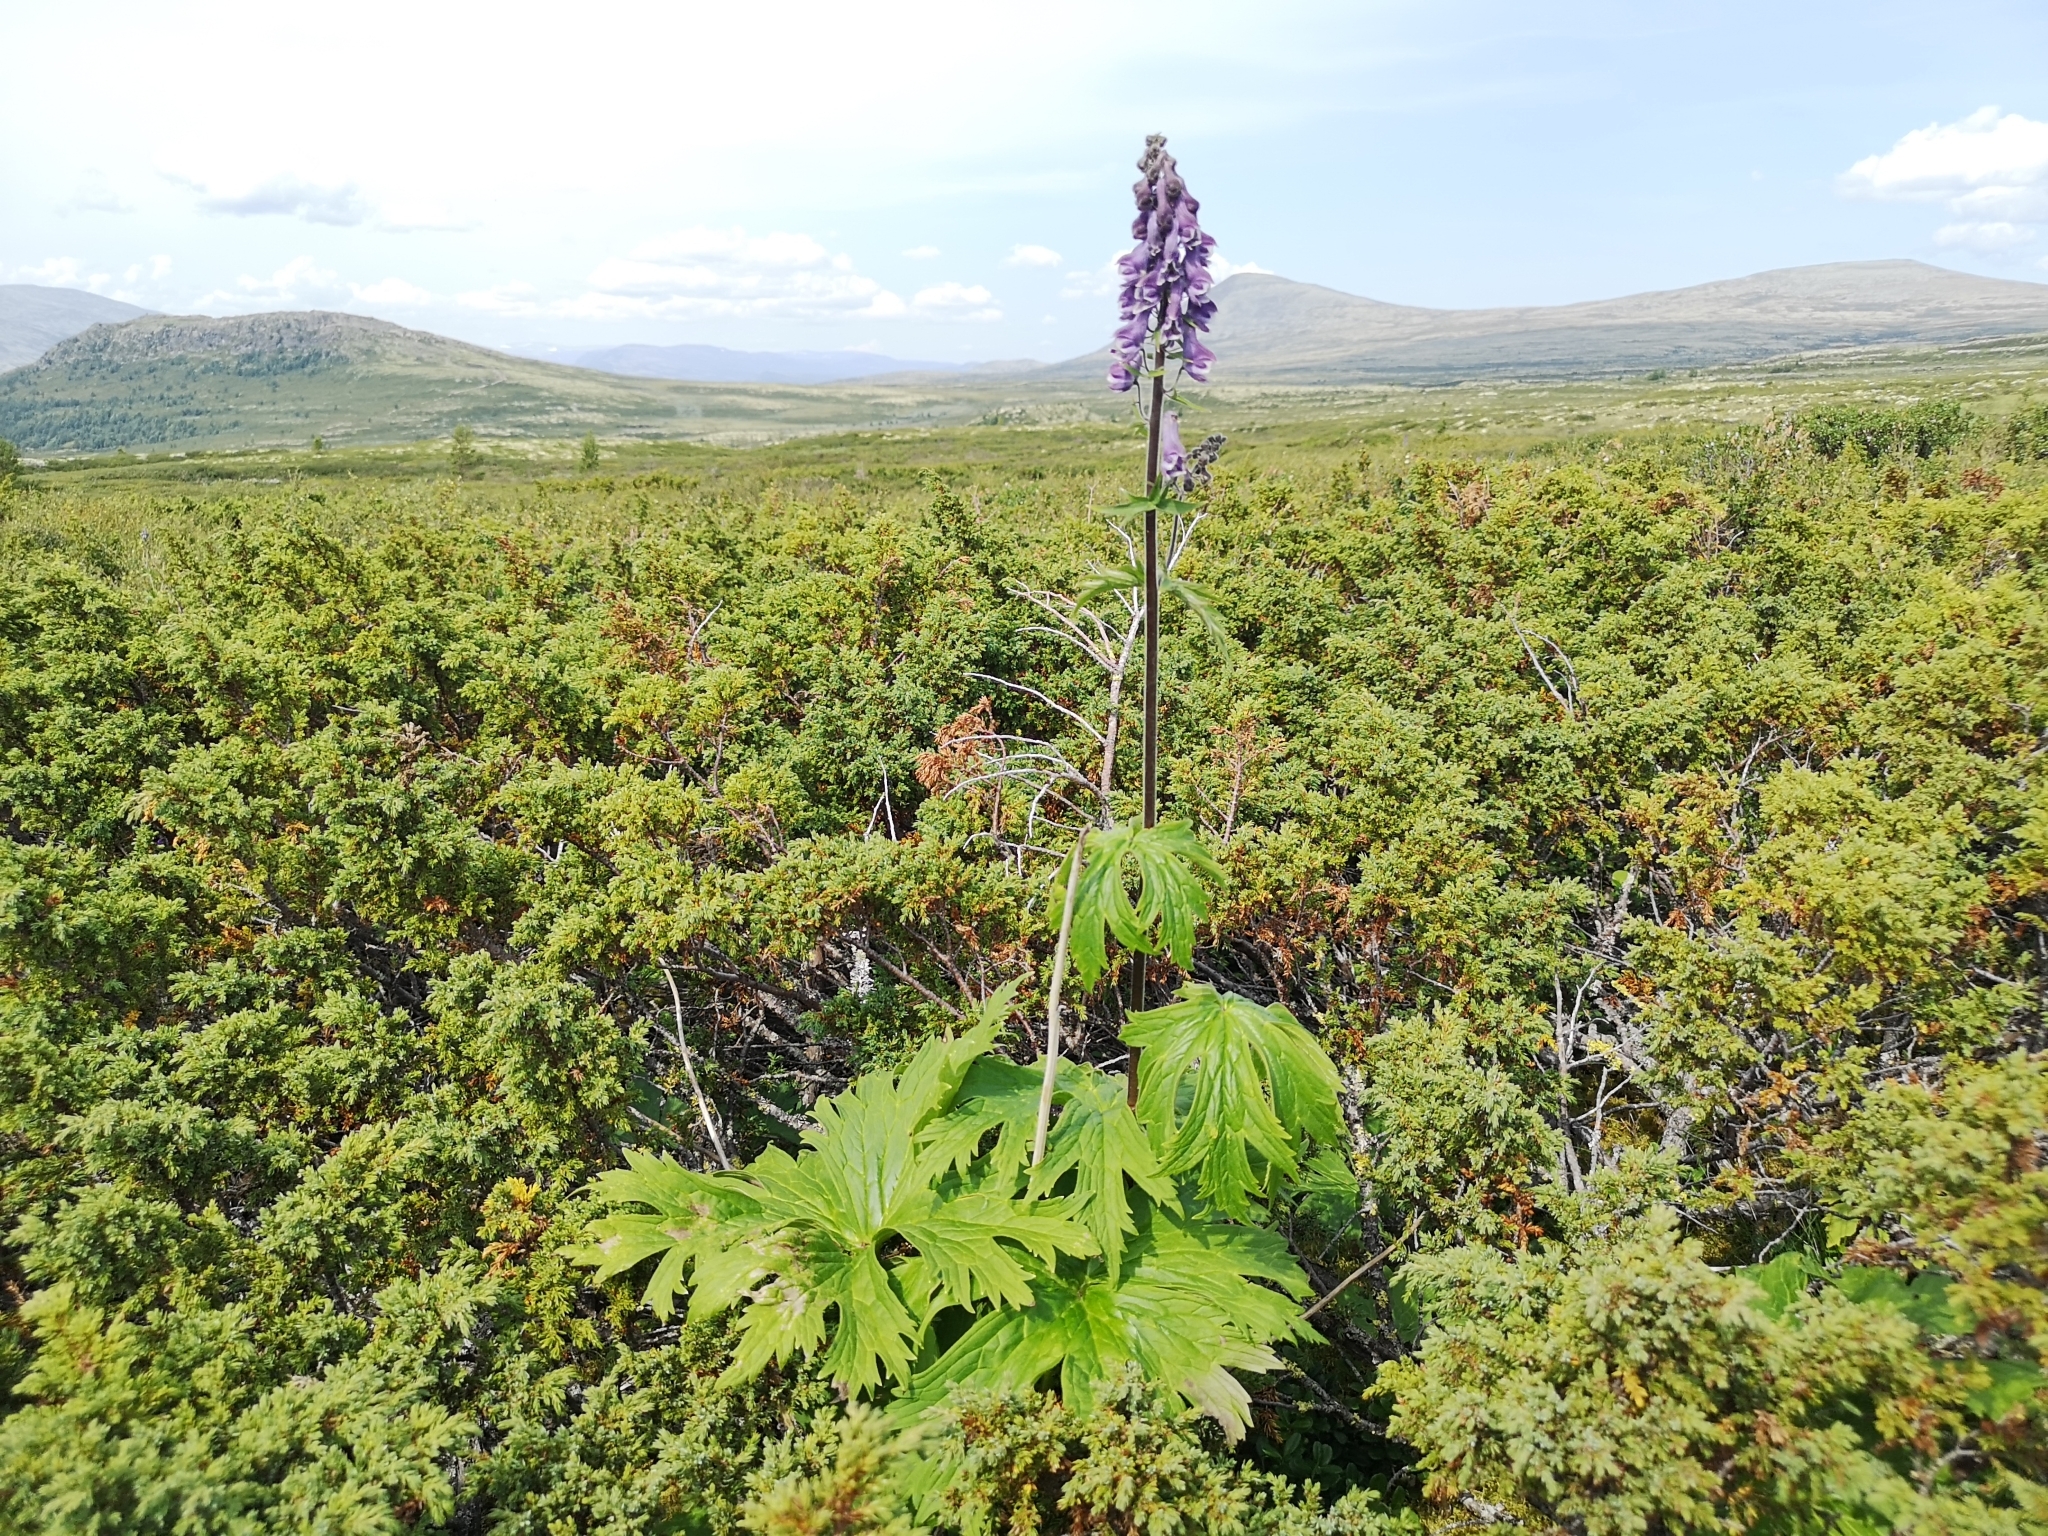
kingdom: Plantae
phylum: Tracheophyta
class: Magnoliopsida
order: Ranunculales
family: Ranunculaceae
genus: Aconitum
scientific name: Aconitum septentrionale
